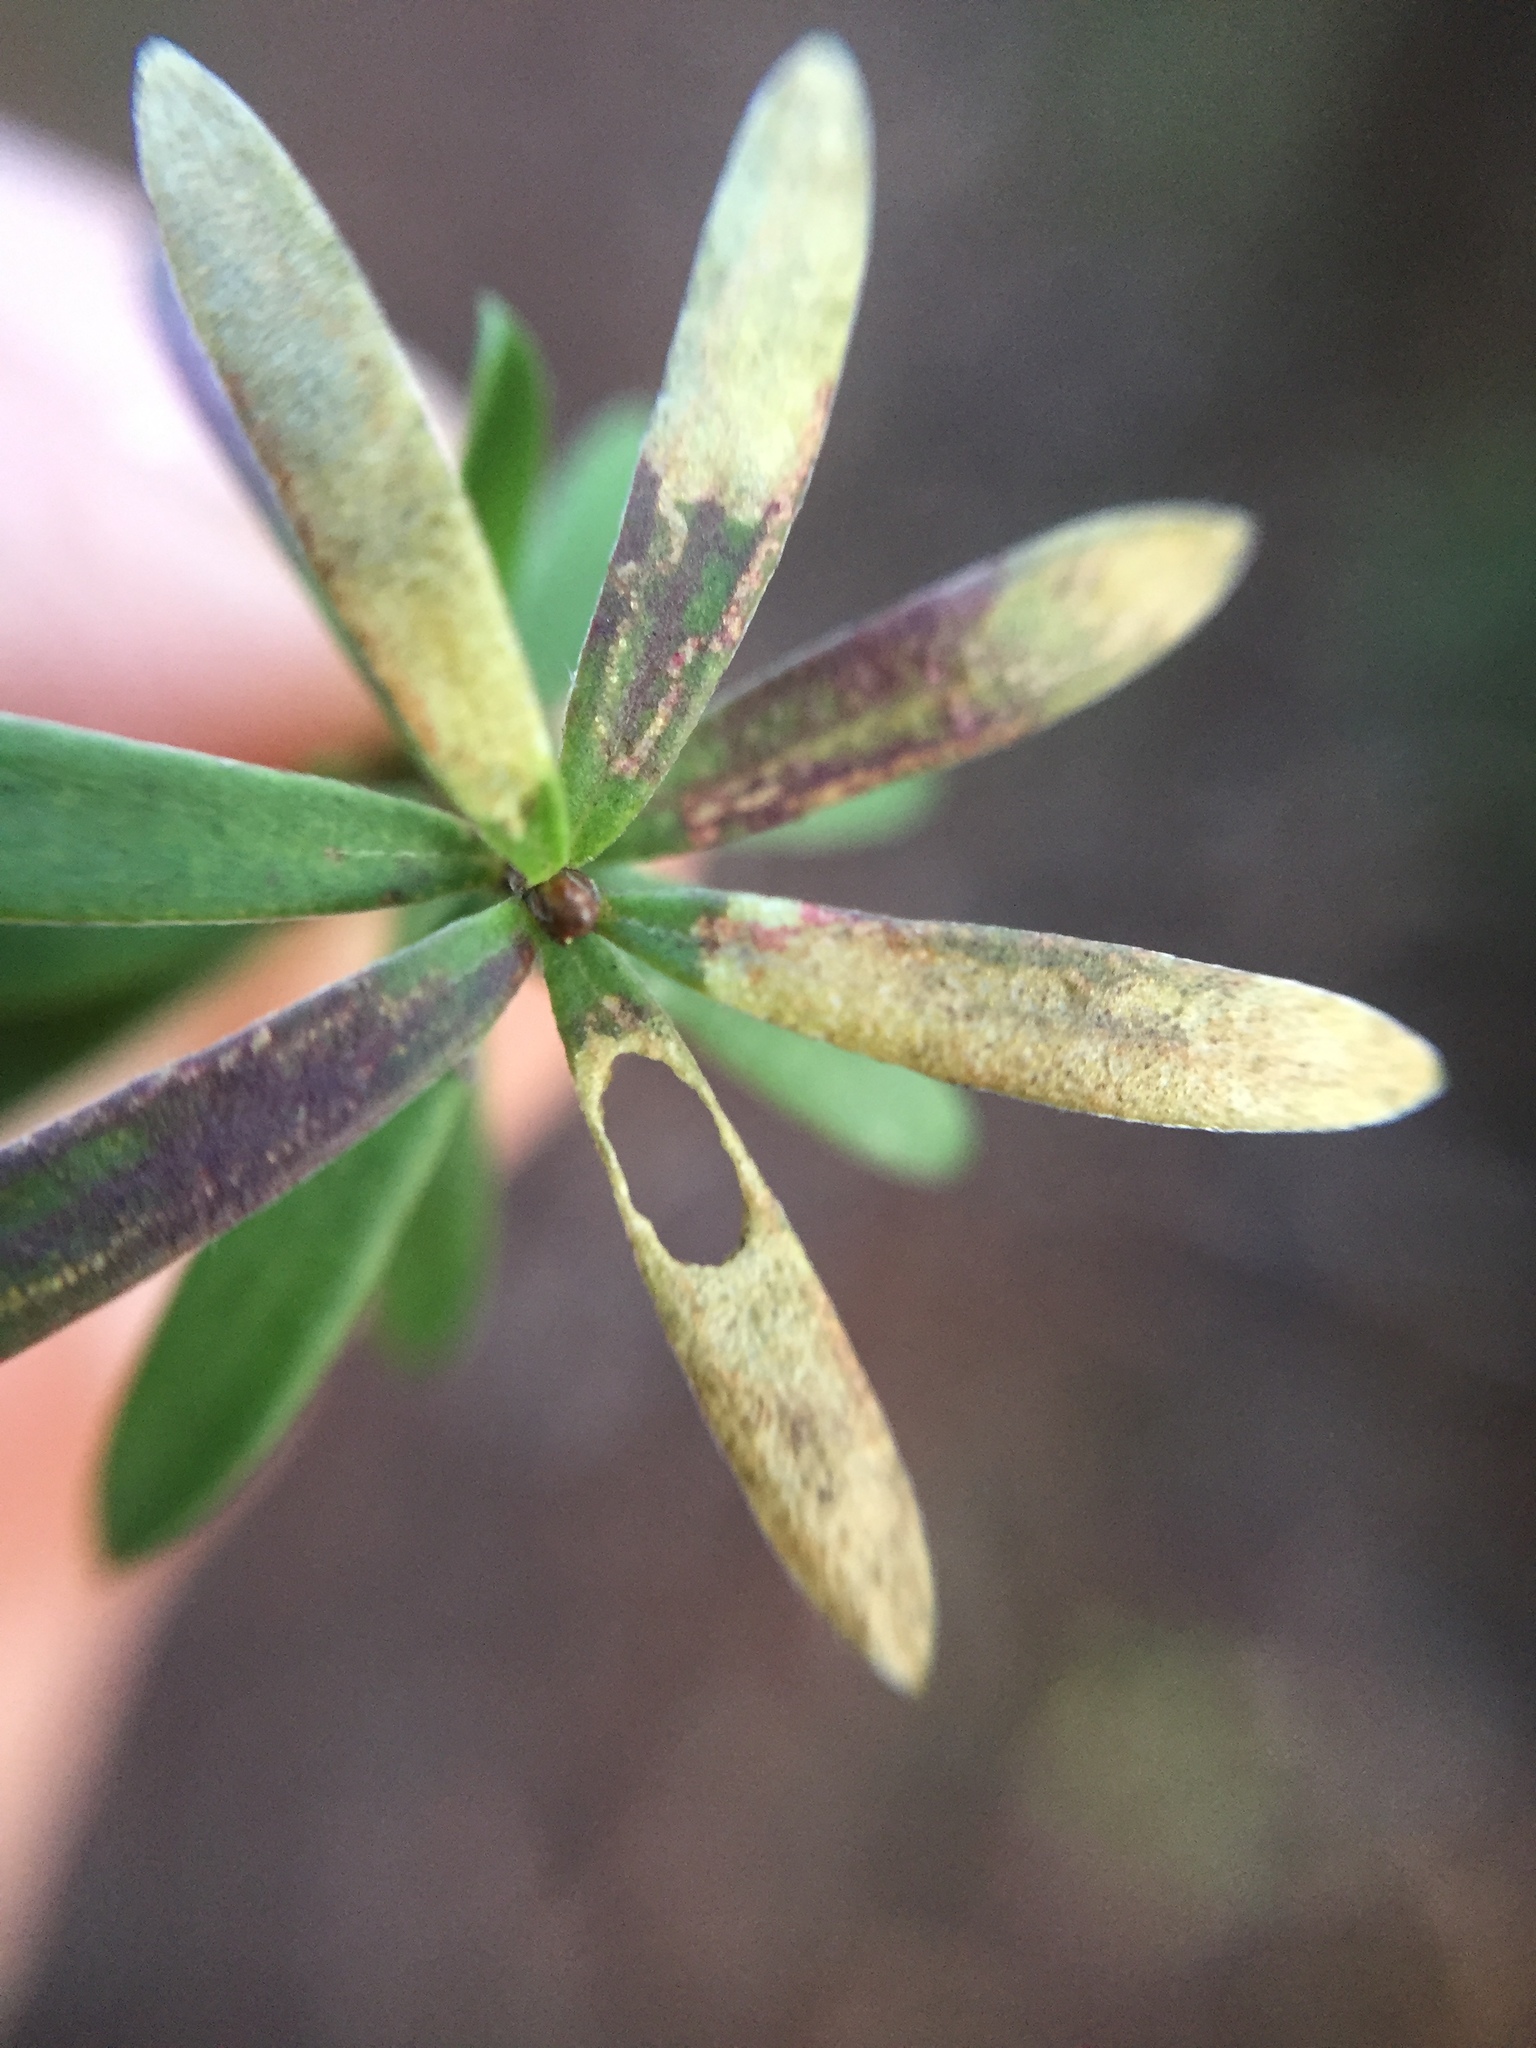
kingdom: Animalia
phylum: Arthropoda
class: Insecta
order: Lepidoptera
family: Heliozelidae
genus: Heliozela
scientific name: Heliozela catoptrias
